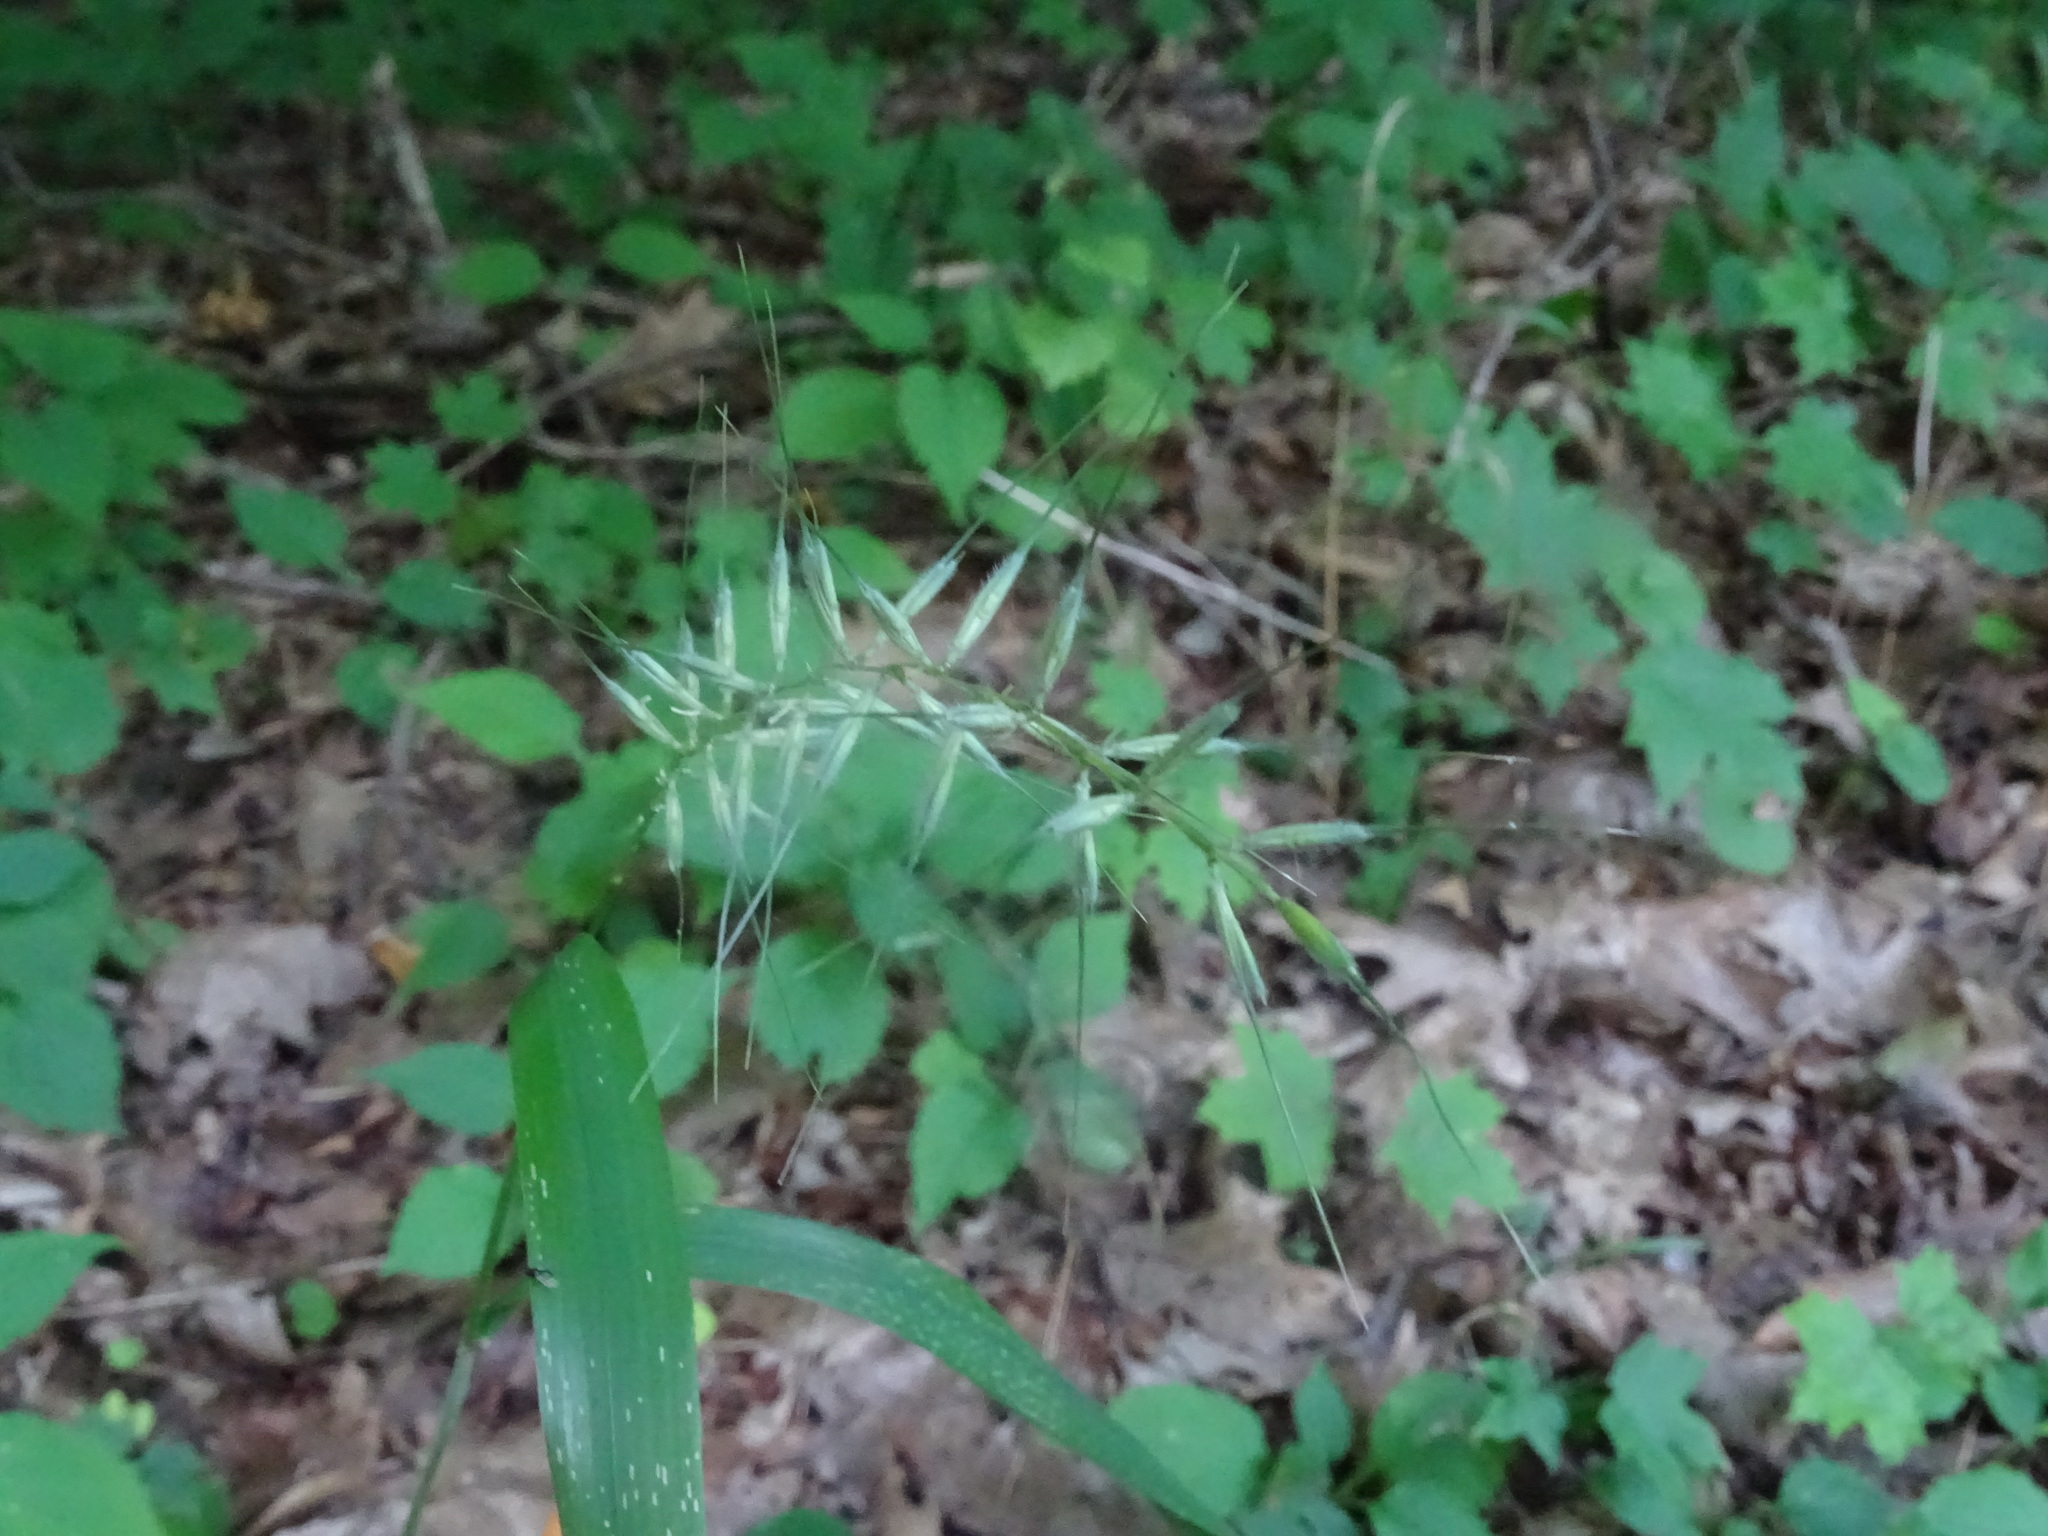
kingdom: Plantae
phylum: Tracheophyta
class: Liliopsida
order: Poales
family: Poaceae
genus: Elymus
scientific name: Elymus hystrix
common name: Bottlebrush grass
